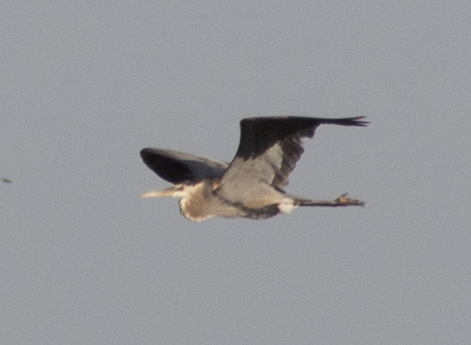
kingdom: Animalia
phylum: Chordata
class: Aves
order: Pelecaniformes
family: Ardeidae
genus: Ardea
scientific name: Ardea herodias
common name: Great blue heron
